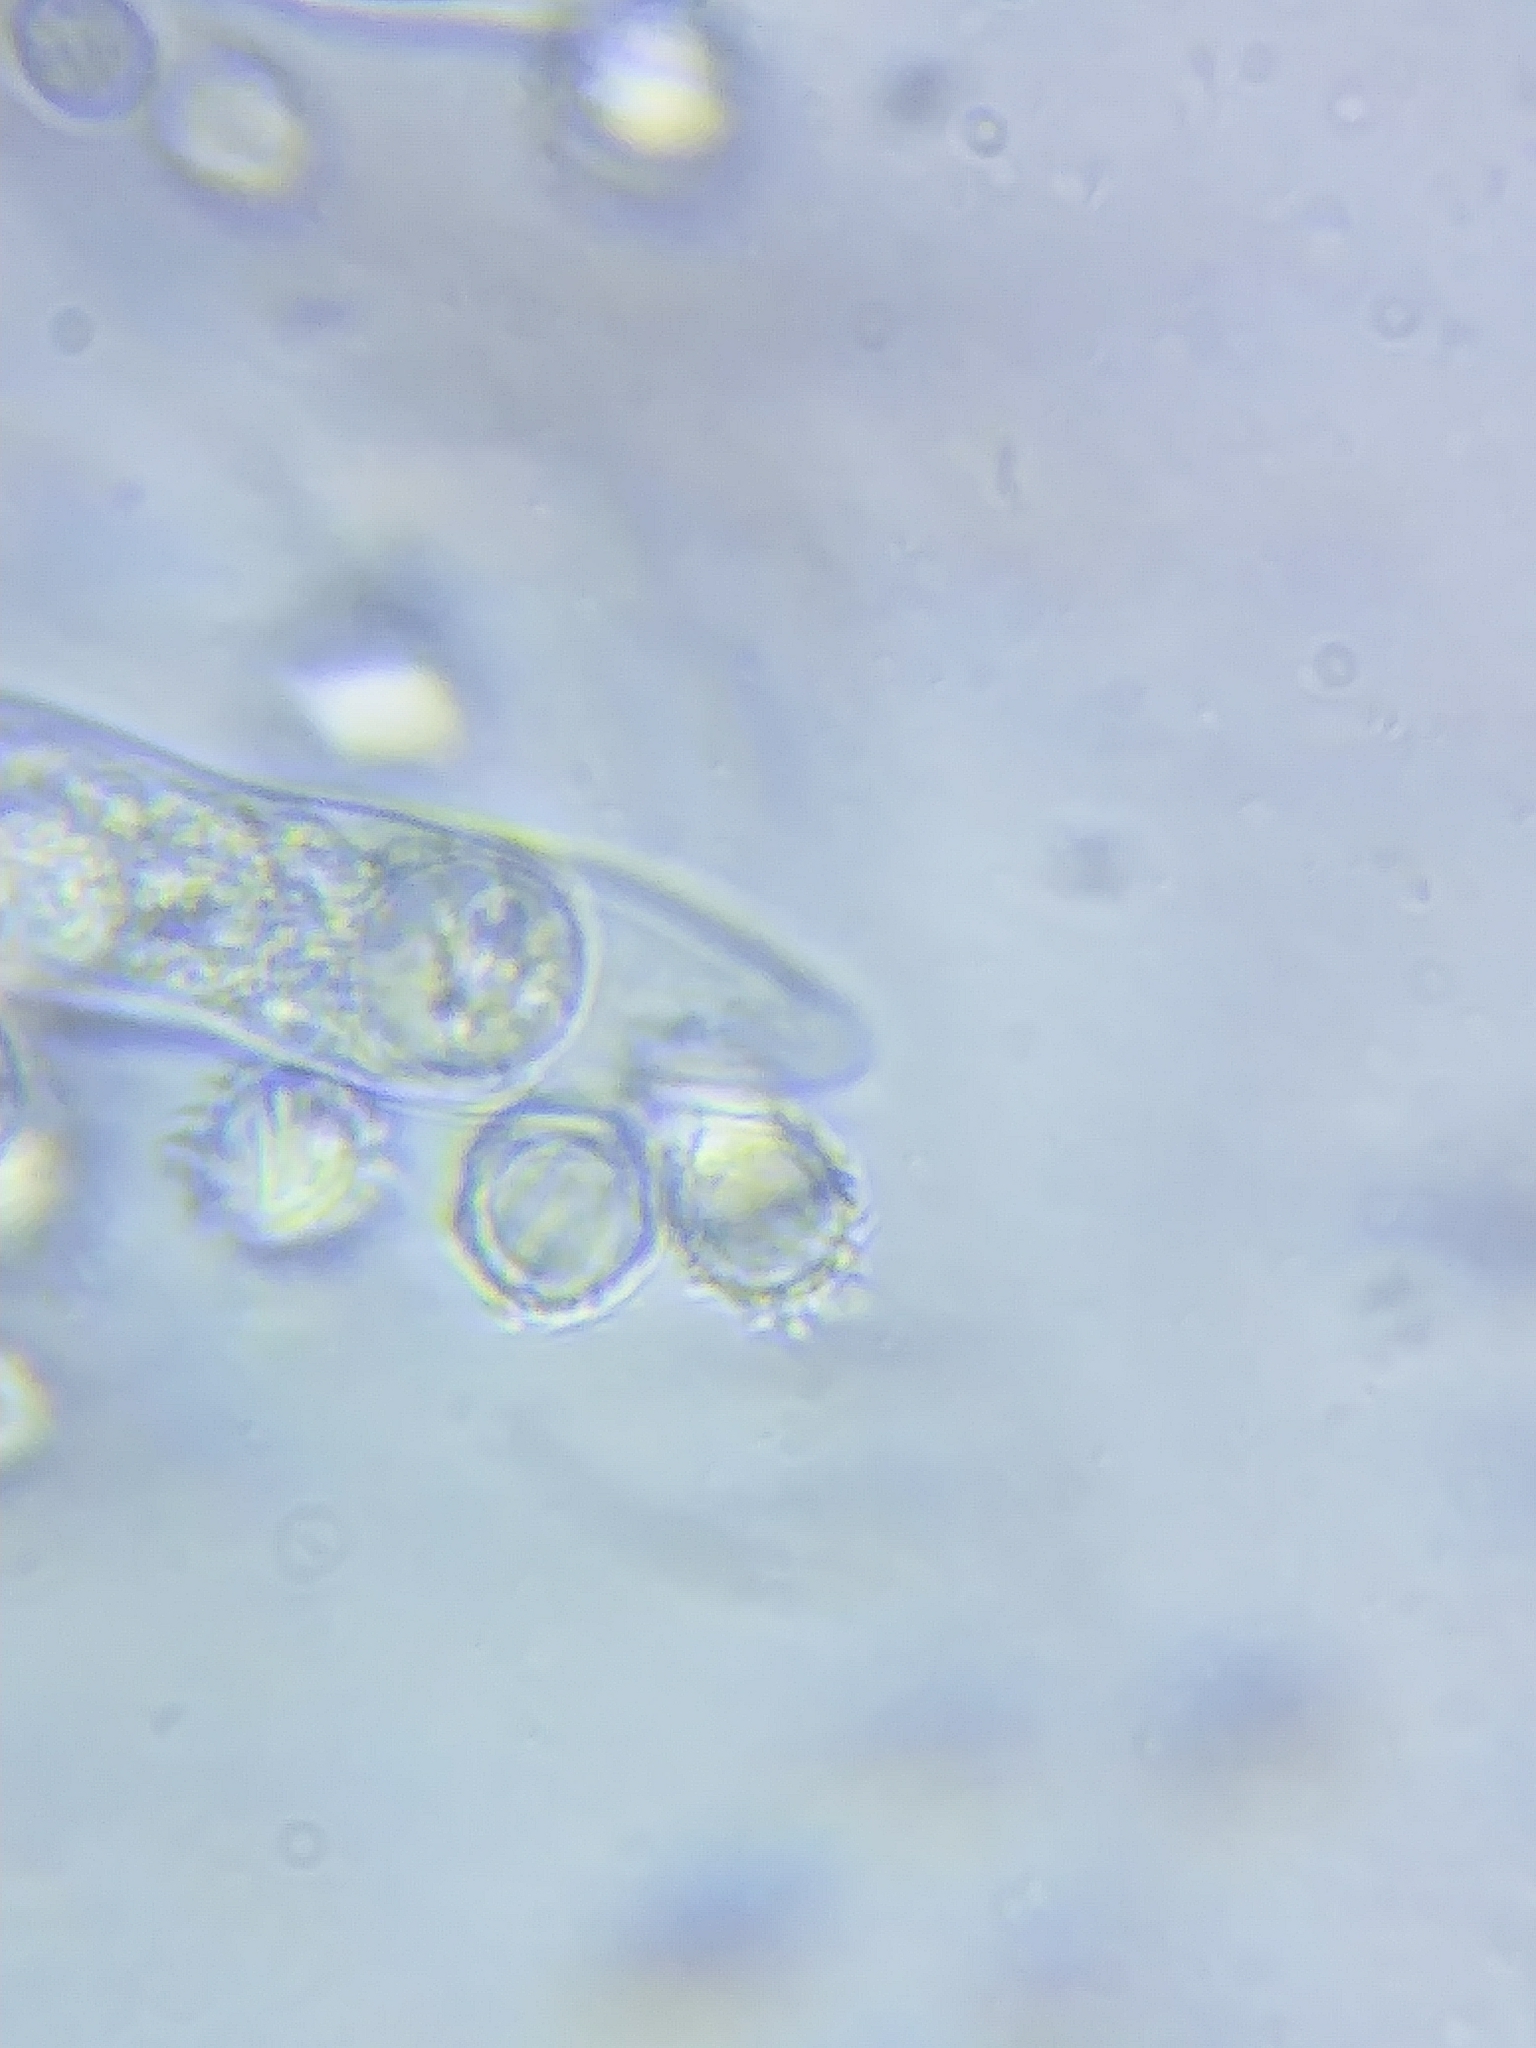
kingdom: Fungi
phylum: Basidiomycota
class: Agaricomycetes
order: Russulales
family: Russulaceae
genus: Lactarius
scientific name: Lactarius pyrogalus
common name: Fiery milkcap
